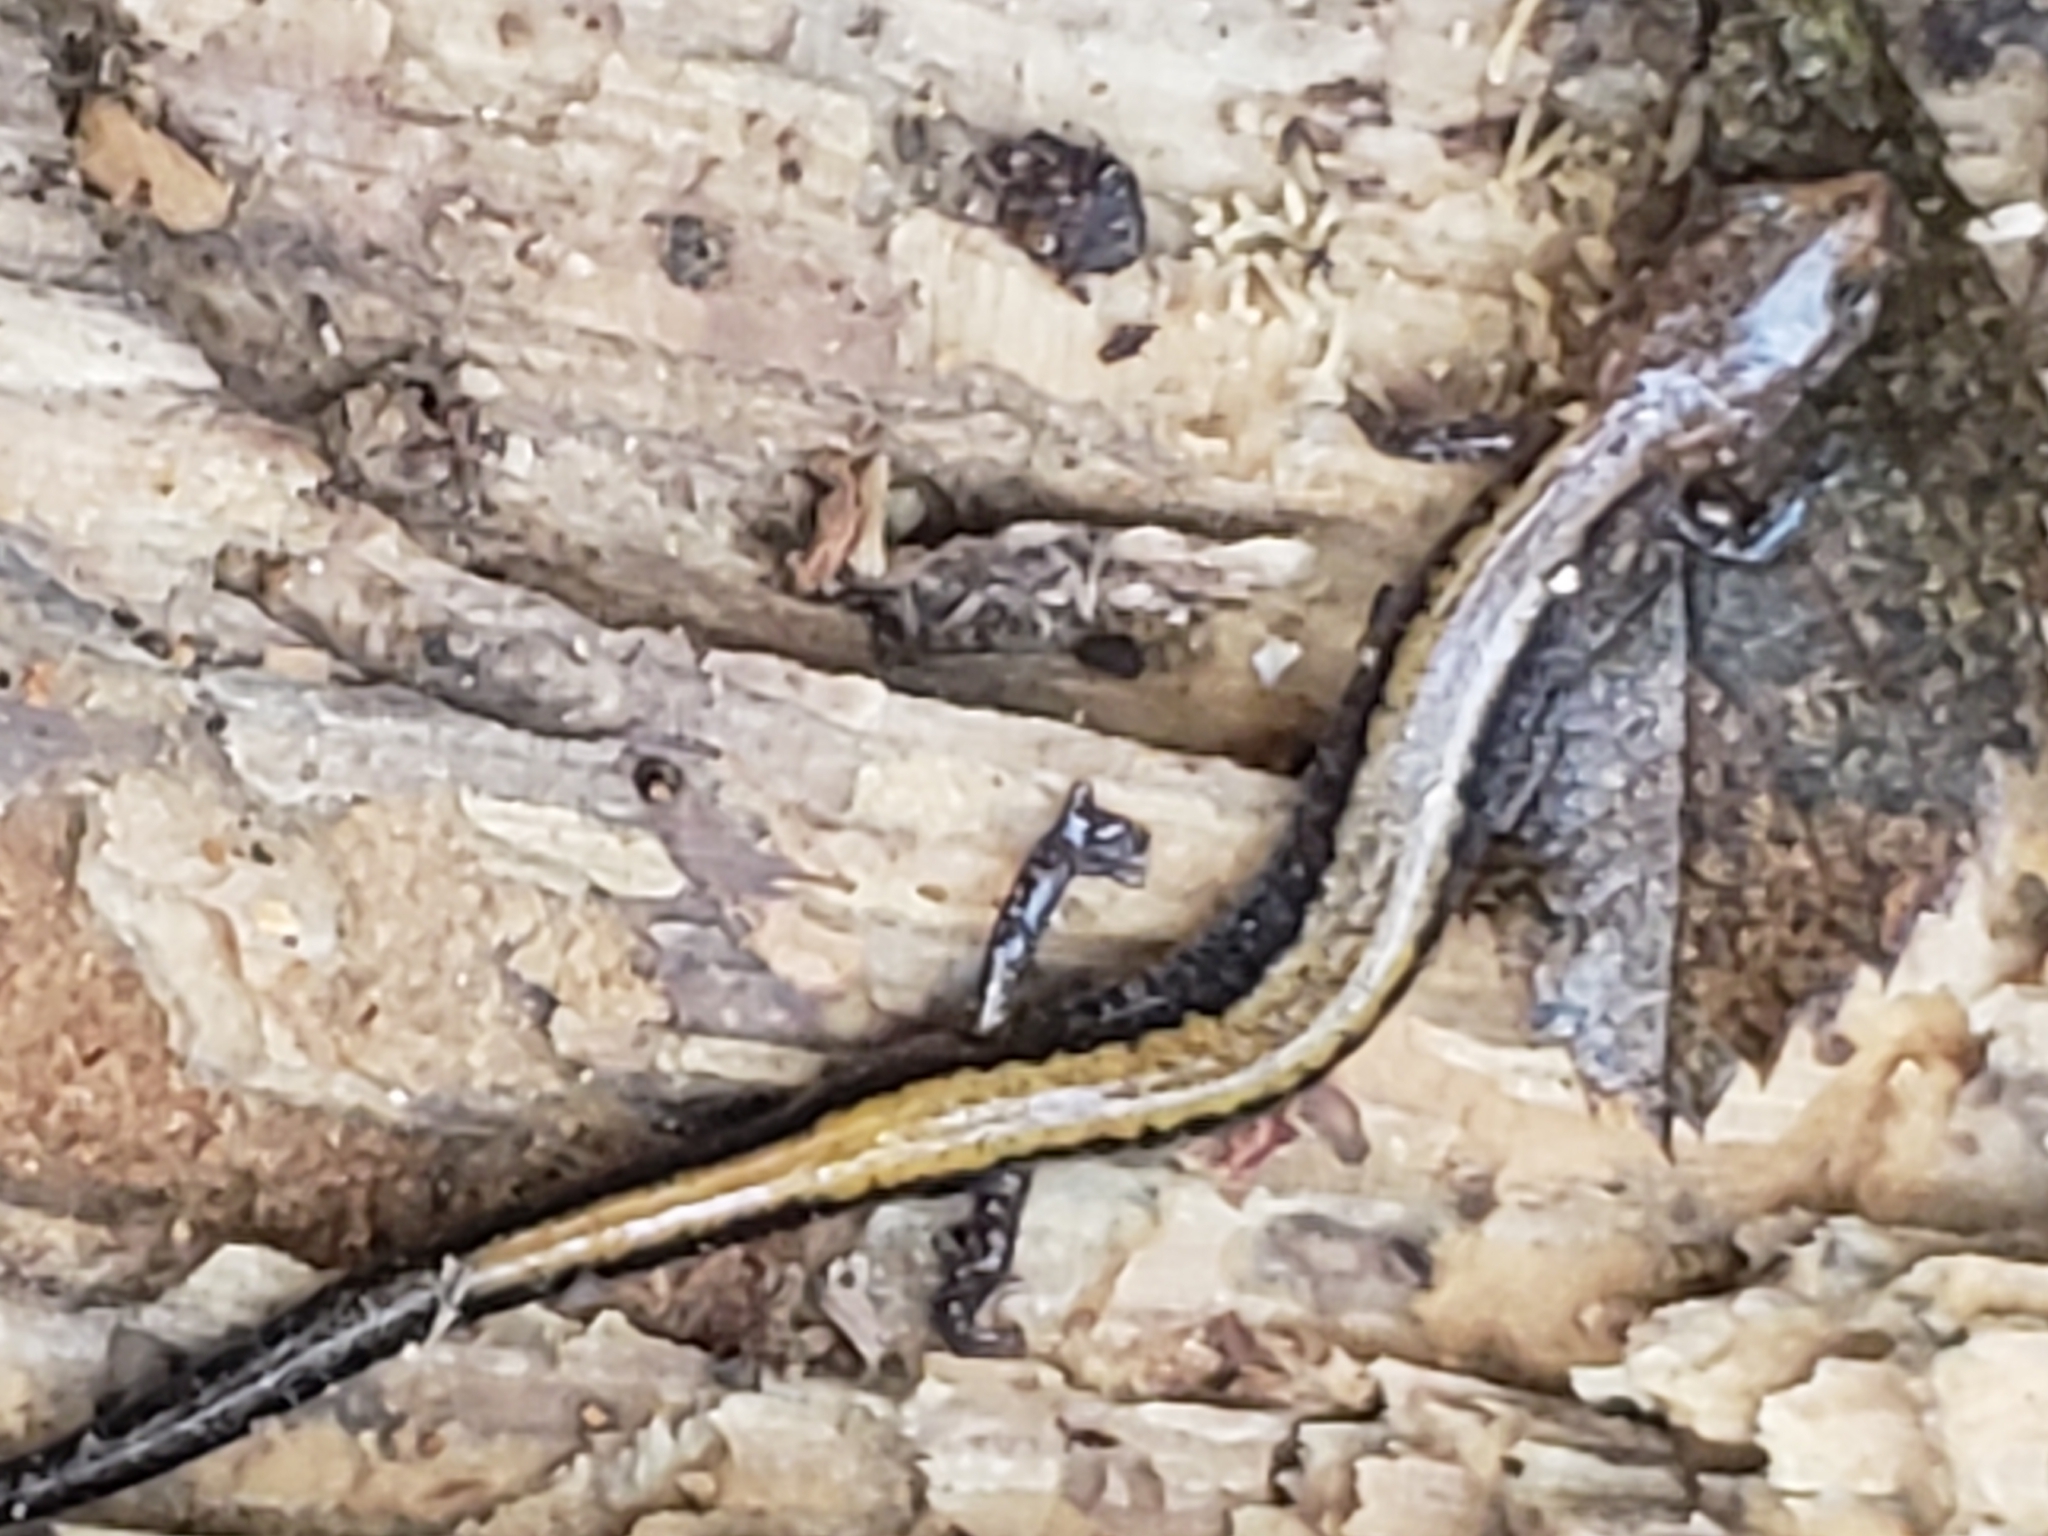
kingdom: Animalia
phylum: Chordata
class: Amphibia
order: Caudata
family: Plethodontidae
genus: Plethodon
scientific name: Plethodon cinereus
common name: Redback salamander
